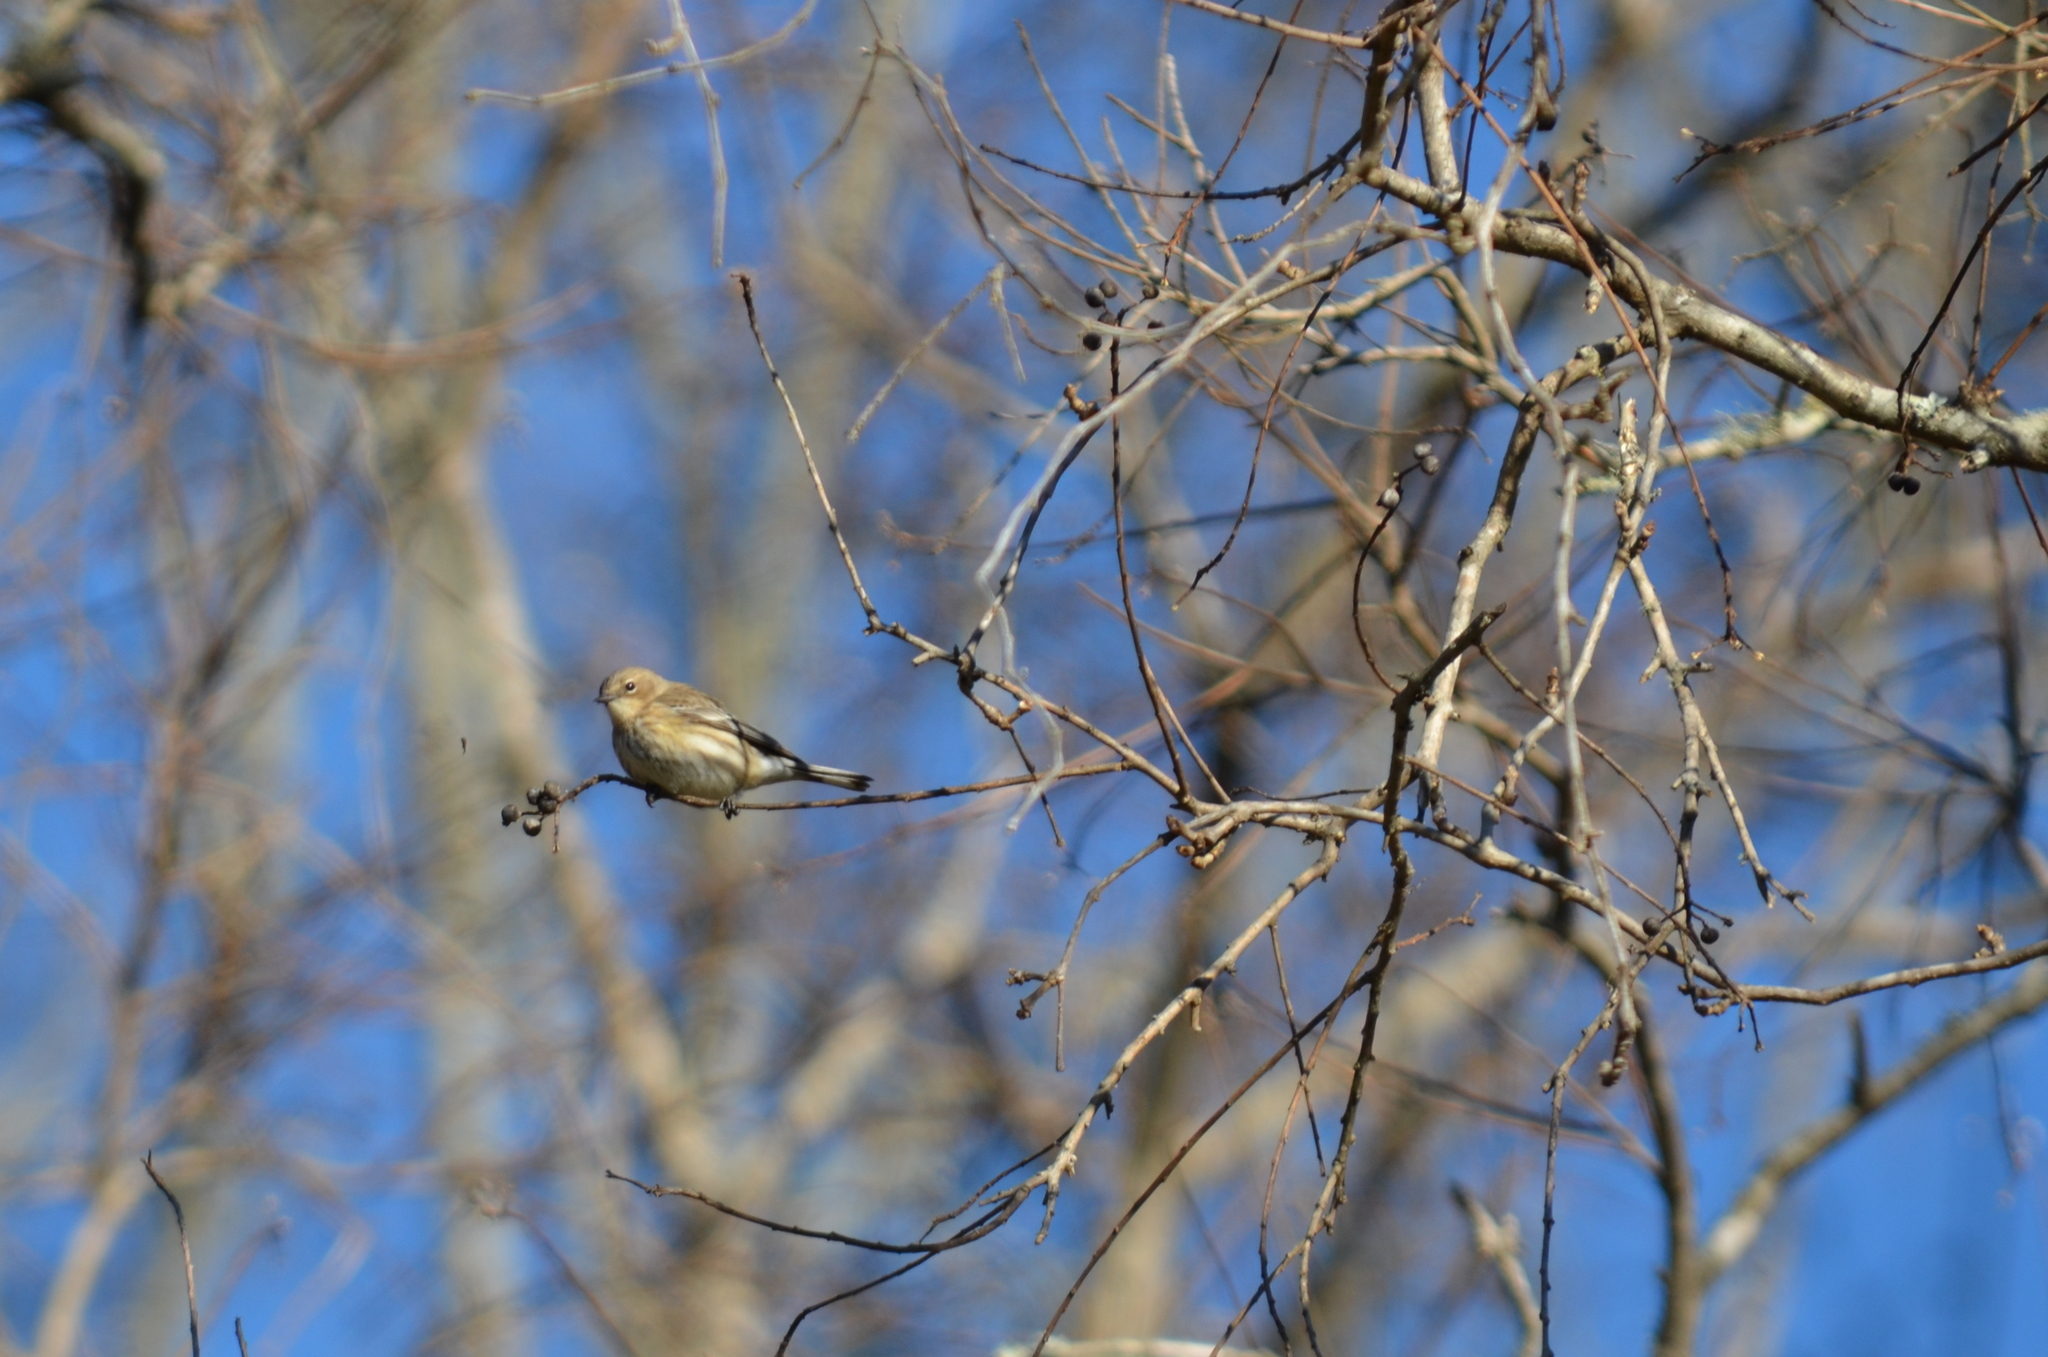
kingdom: Animalia
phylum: Chordata
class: Aves
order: Passeriformes
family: Parulidae
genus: Setophaga
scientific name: Setophaga coronata
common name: Myrtle warbler
